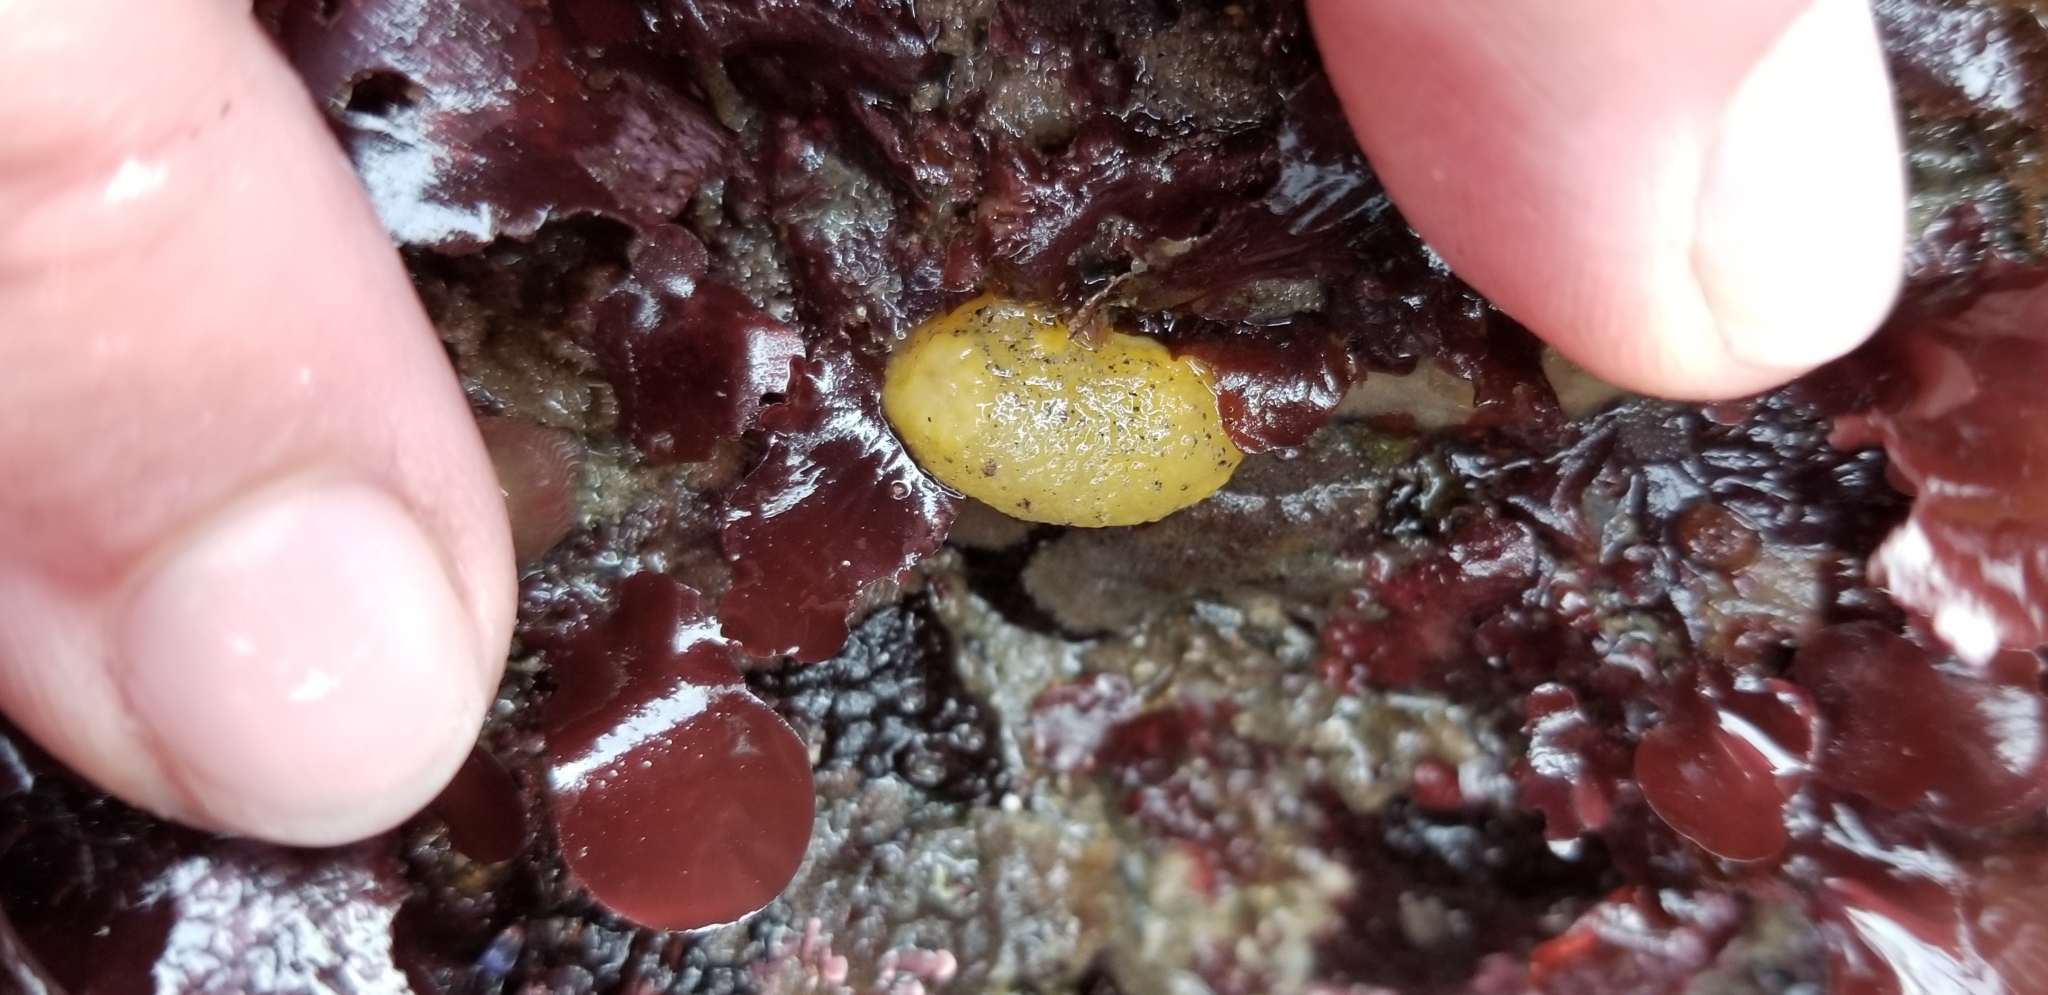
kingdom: Animalia
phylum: Mollusca
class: Gastropoda
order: Nudibranchia
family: Dorididae
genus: Doris
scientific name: Doris montereyensis
